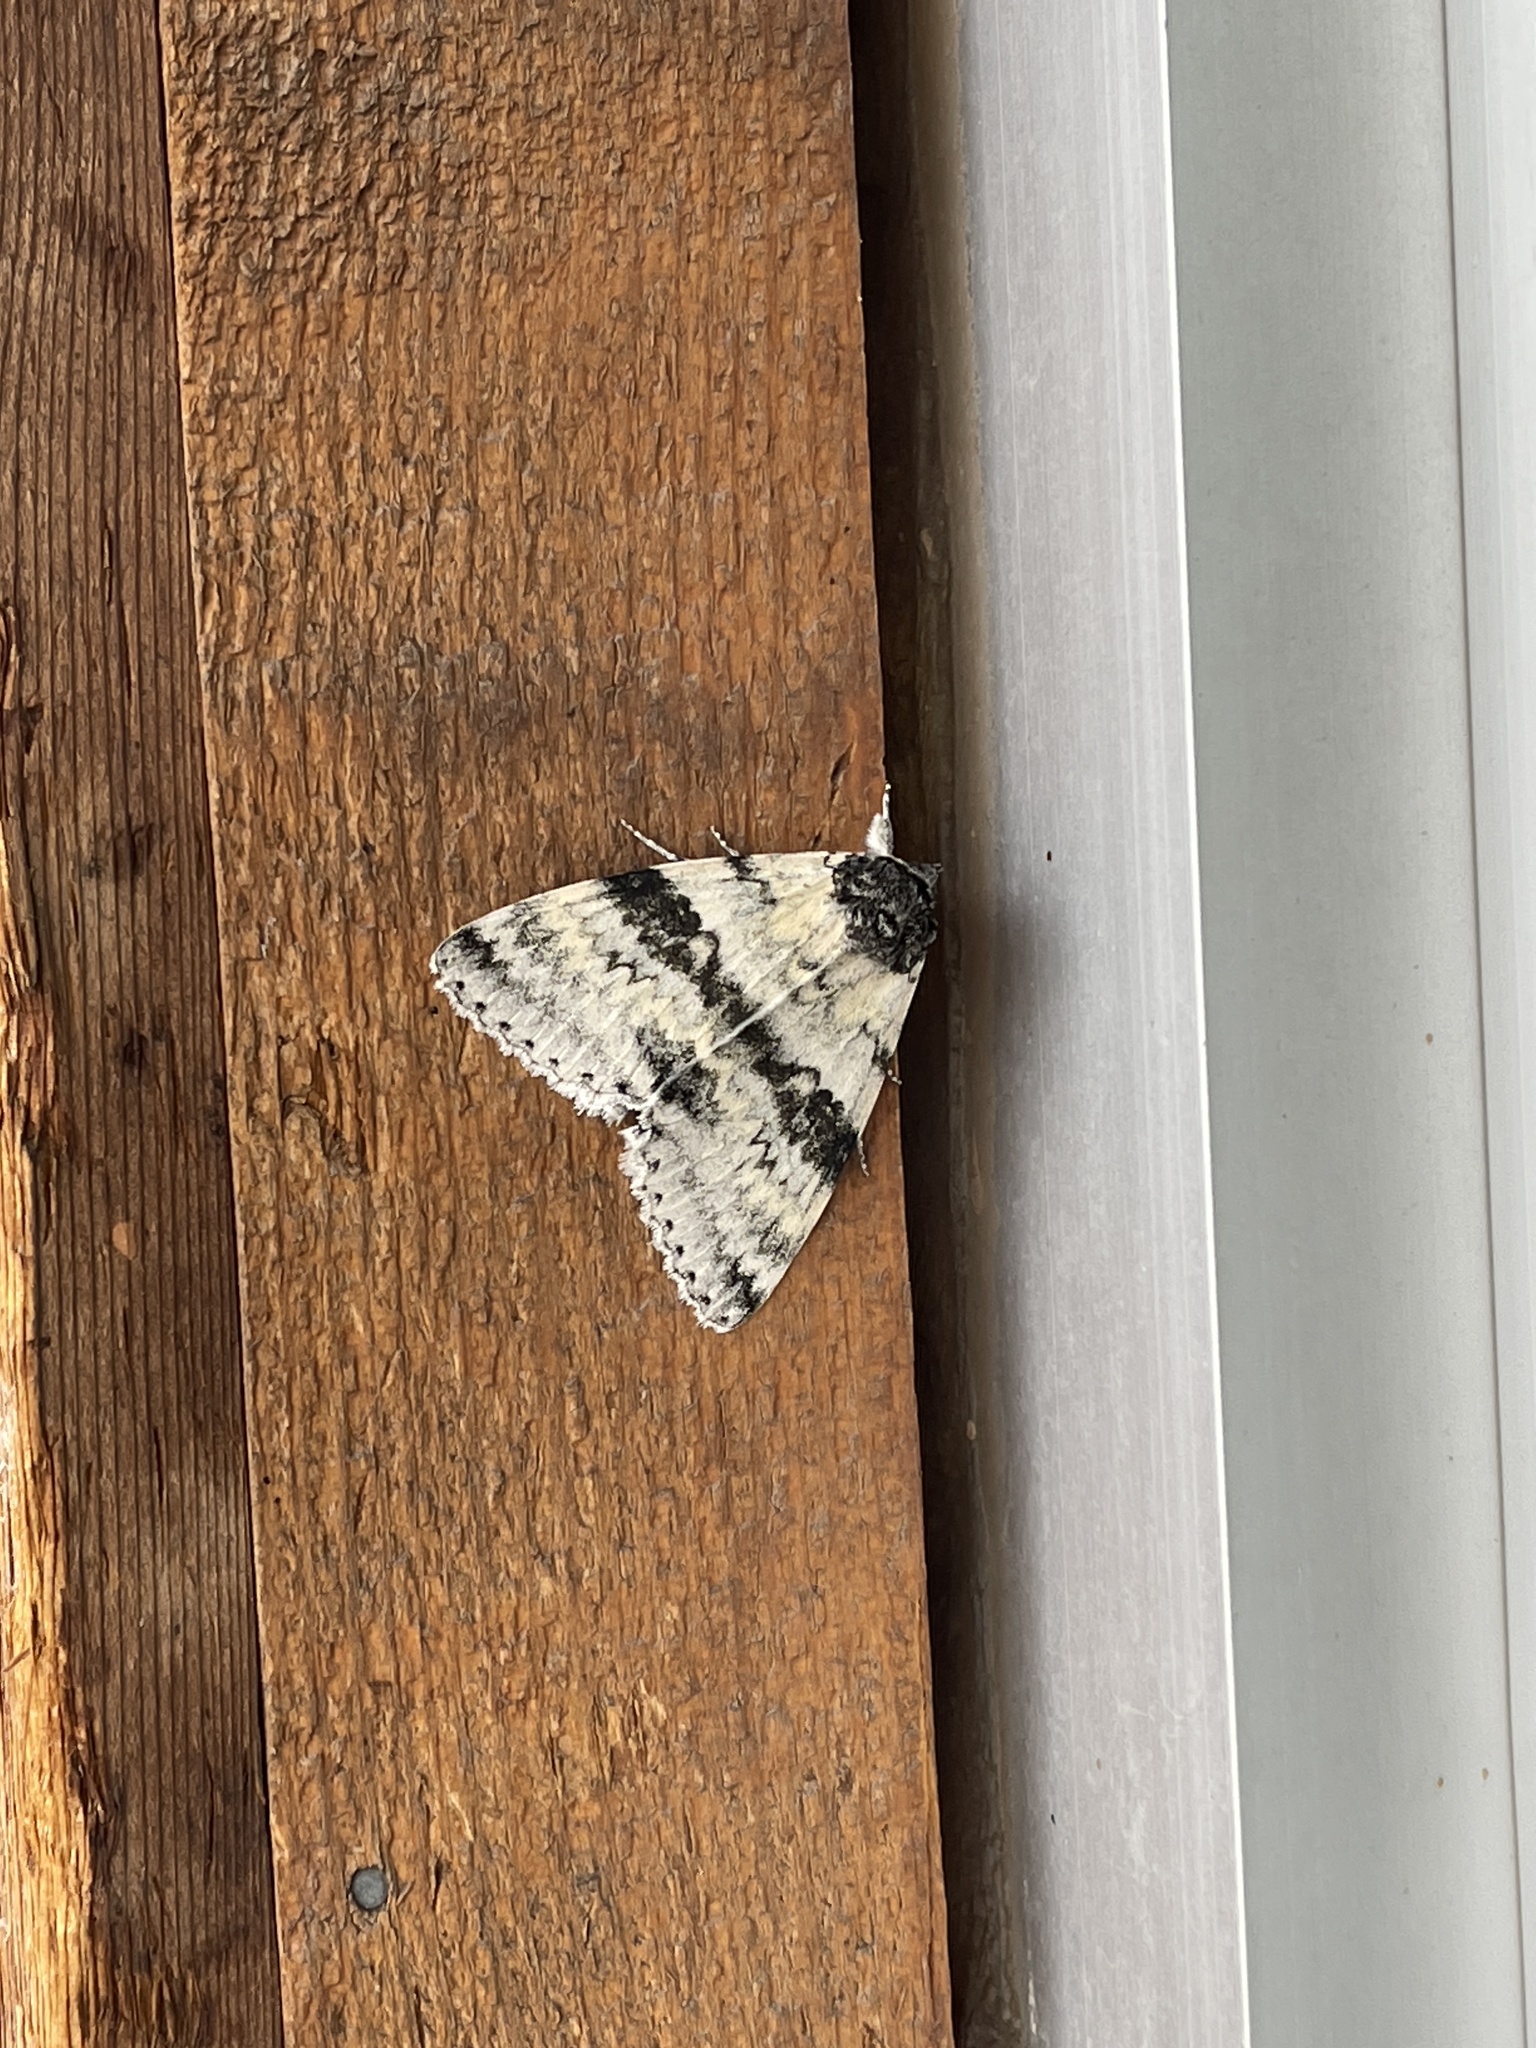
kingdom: Animalia
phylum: Arthropoda
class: Insecta
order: Lepidoptera
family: Erebidae
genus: Catocala
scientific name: Catocala relicta
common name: White underwing
